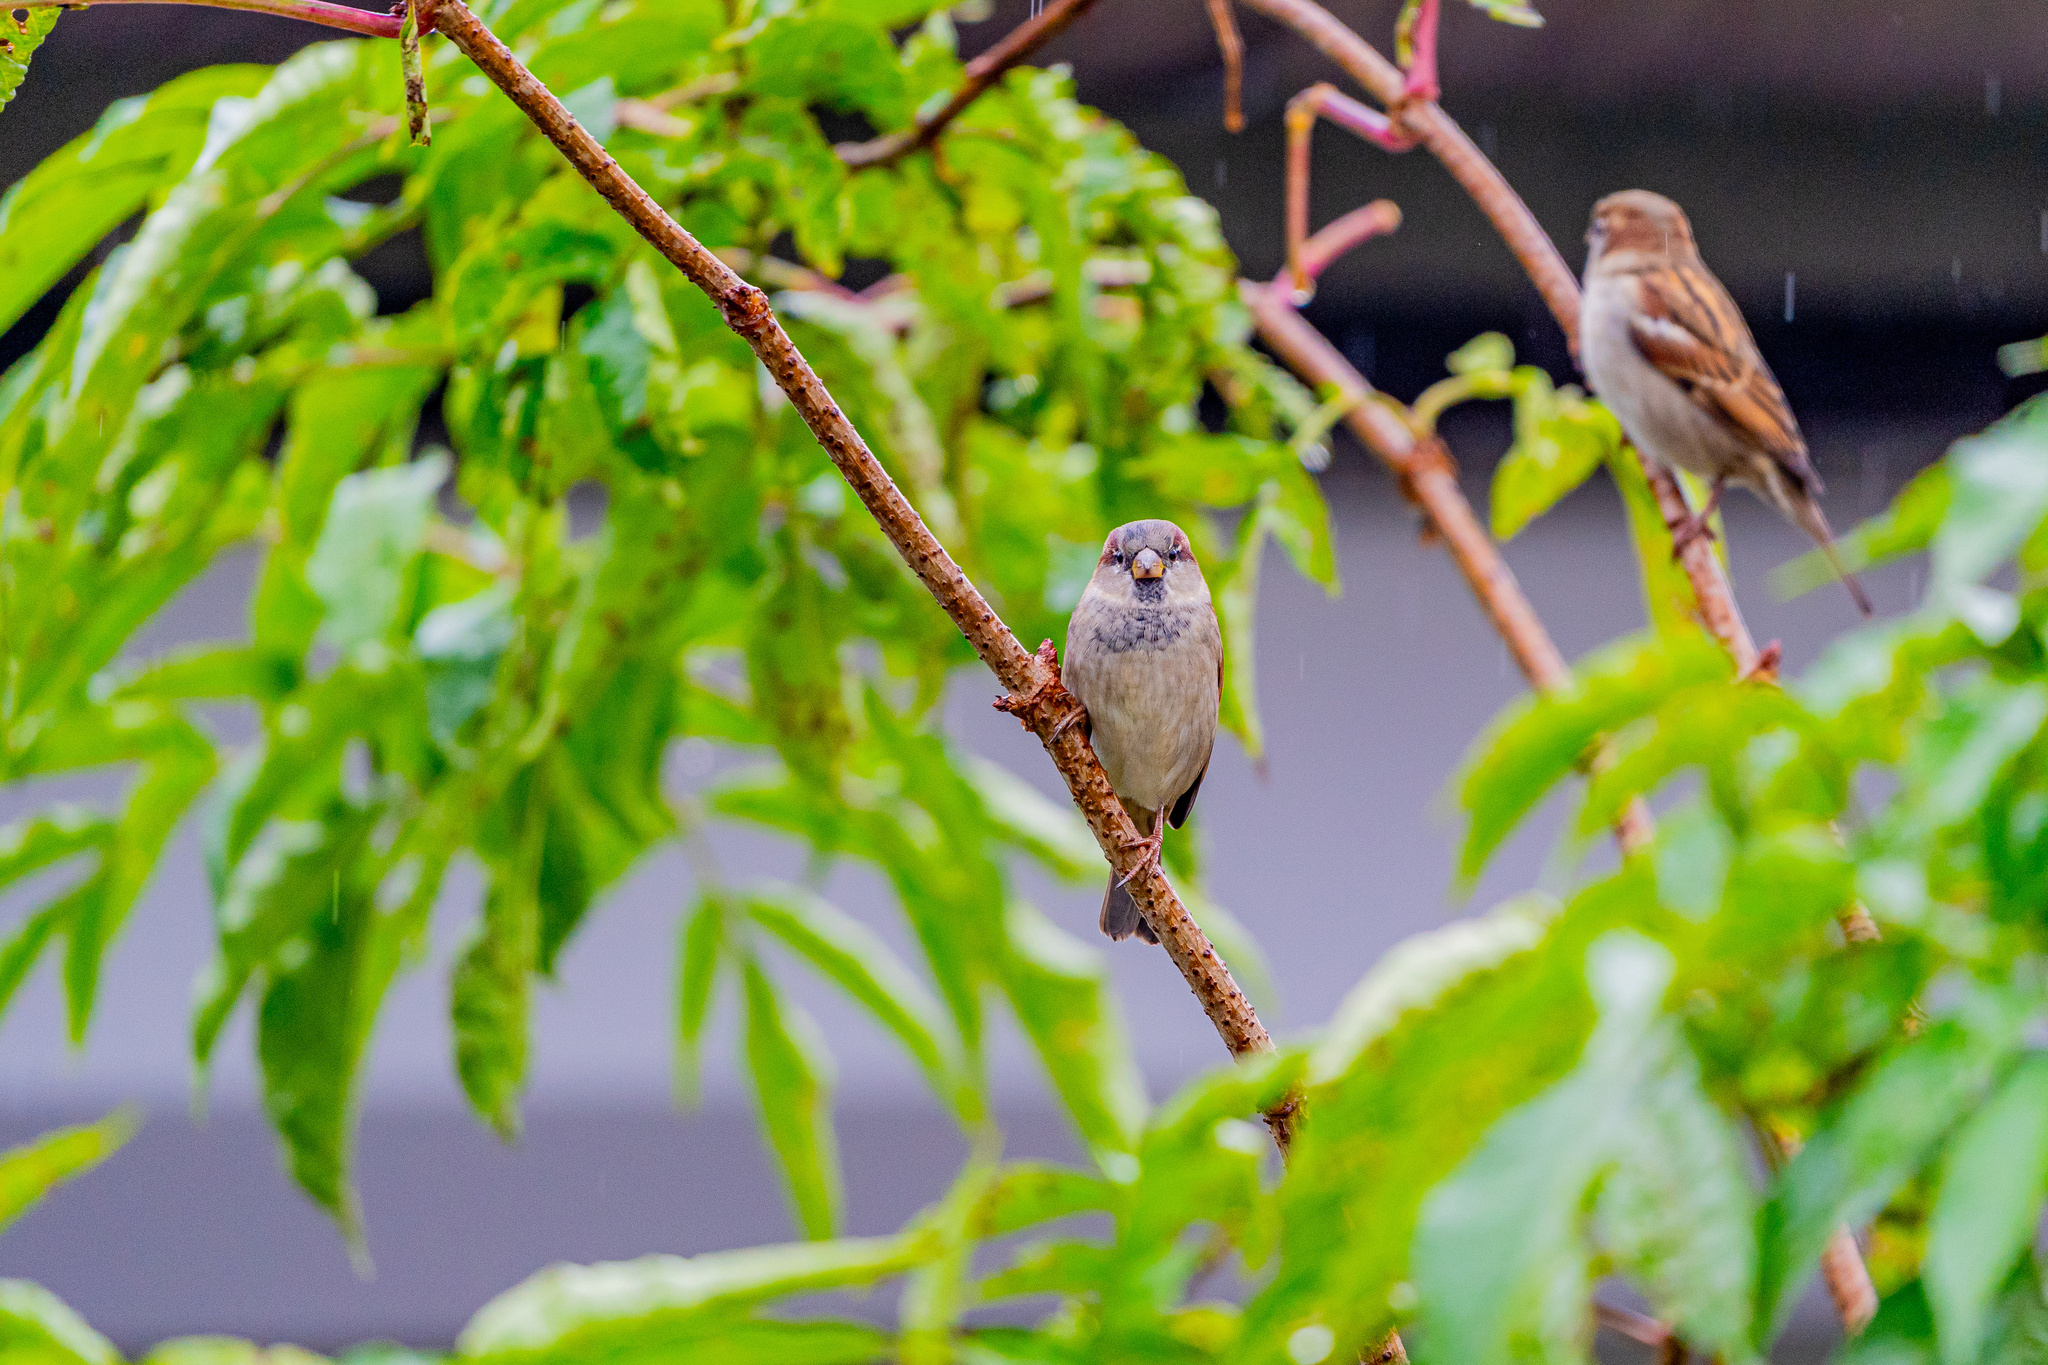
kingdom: Animalia
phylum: Chordata
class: Aves
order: Passeriformes
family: Passeridae
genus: Passer
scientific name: Passer domesticus
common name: House sparrow
